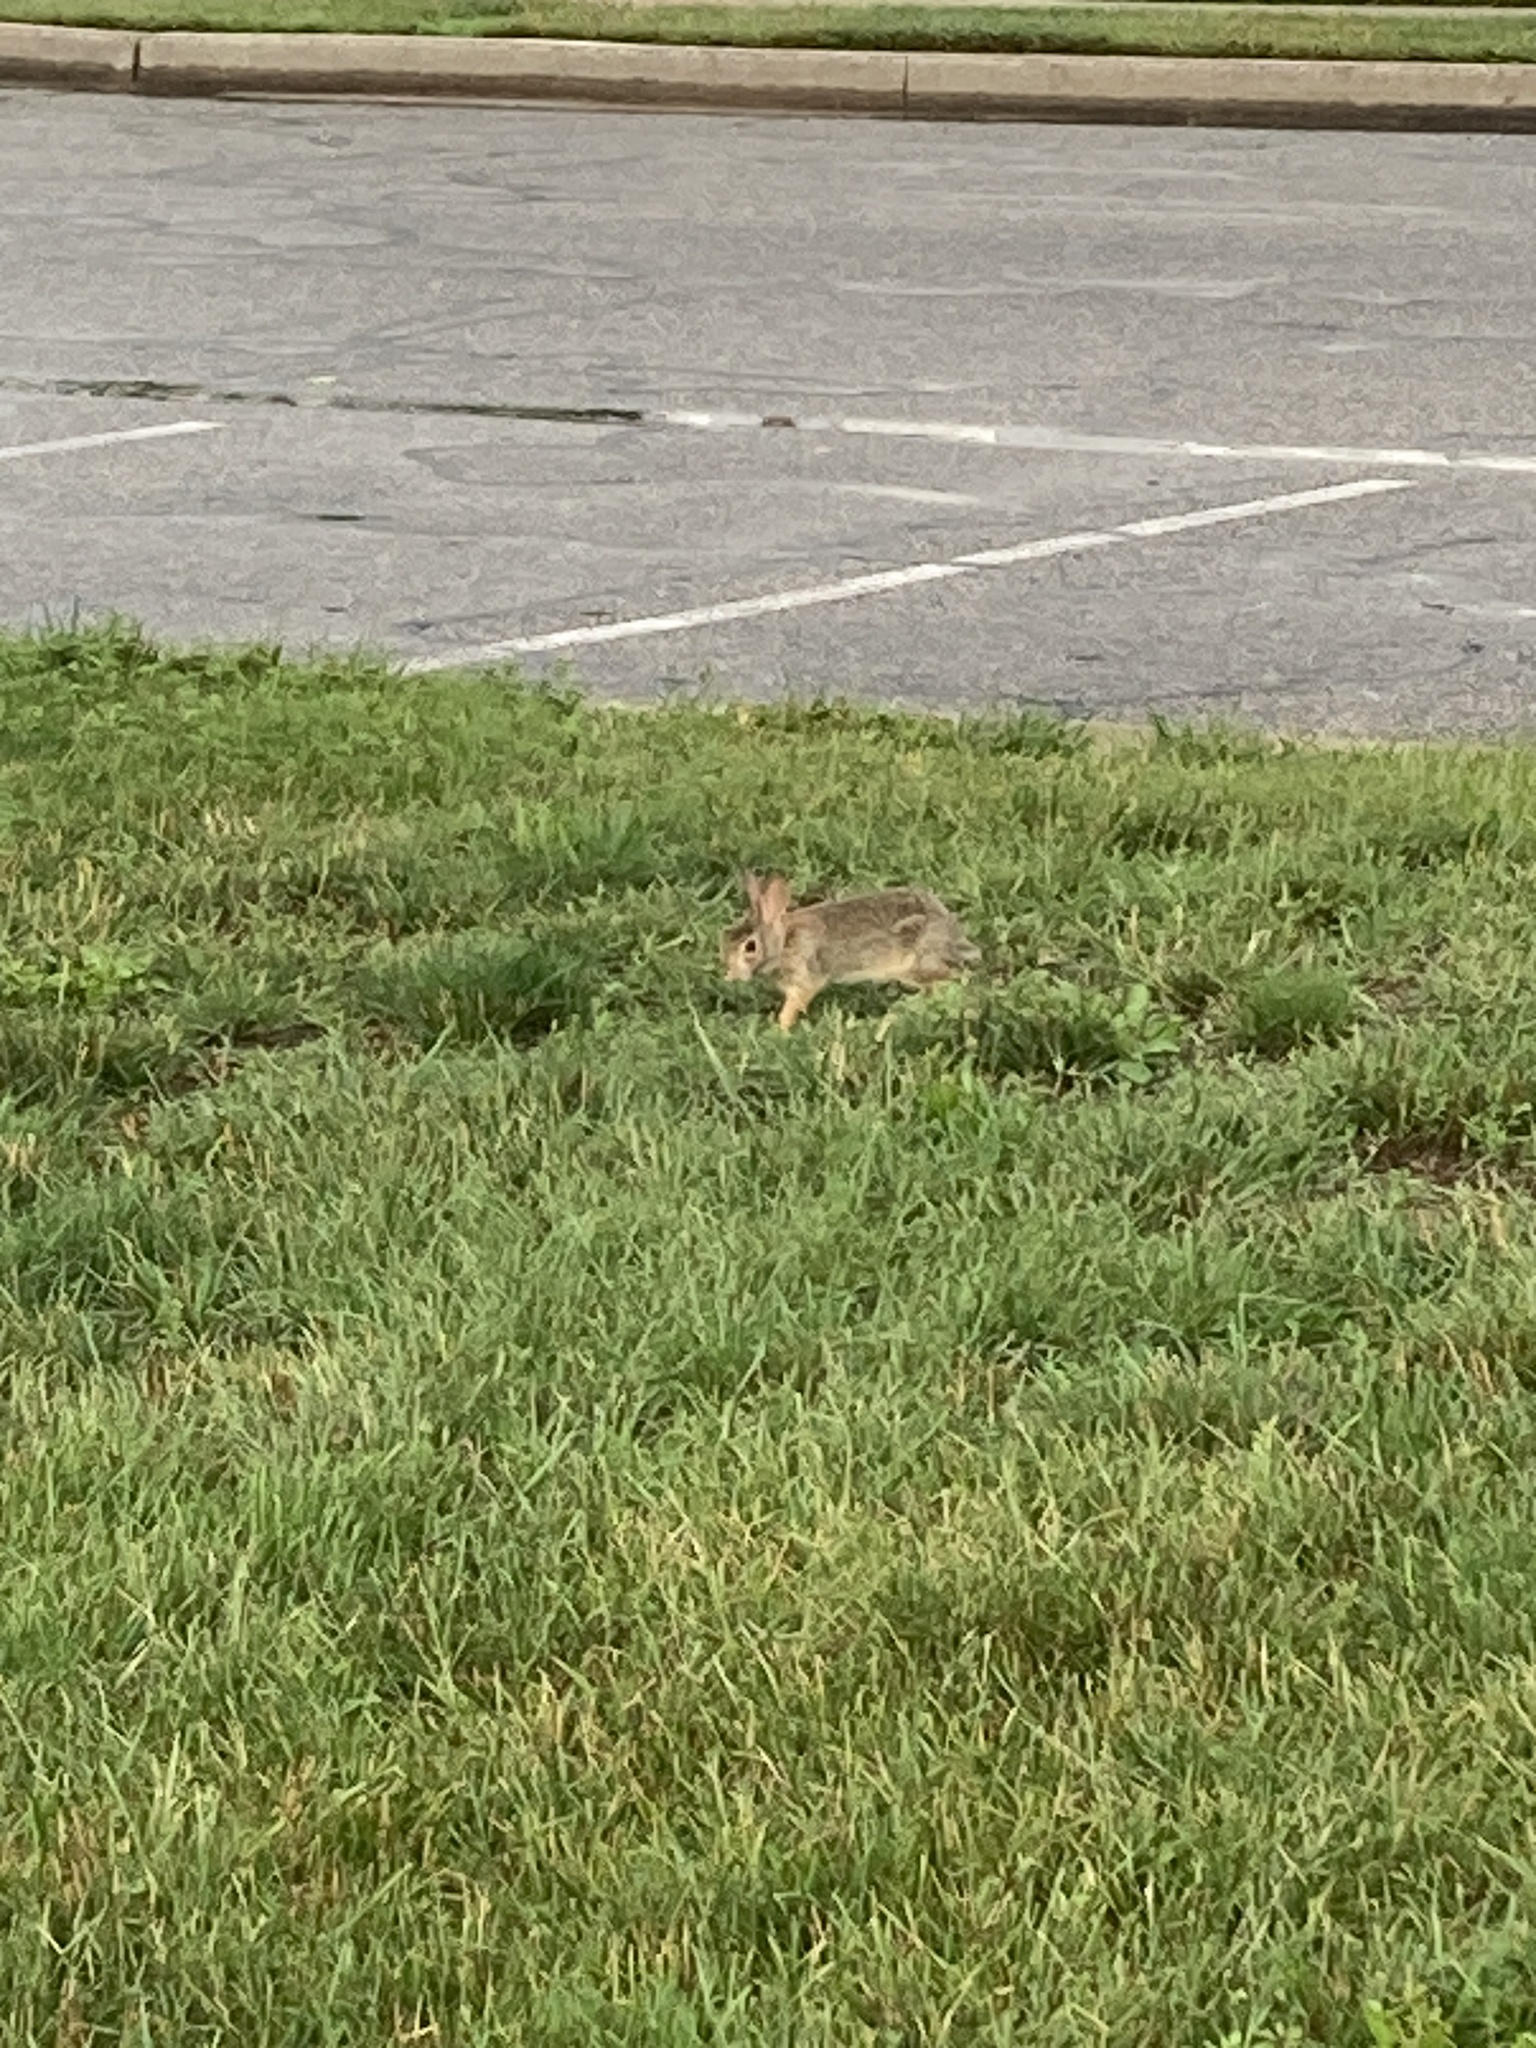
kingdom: Animalia
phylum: Chordata
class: Mammalia
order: Lagomorpha
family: Leporidae
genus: Sylvilagus
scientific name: Sylvilagus floridanus
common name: Eastern cottontail
